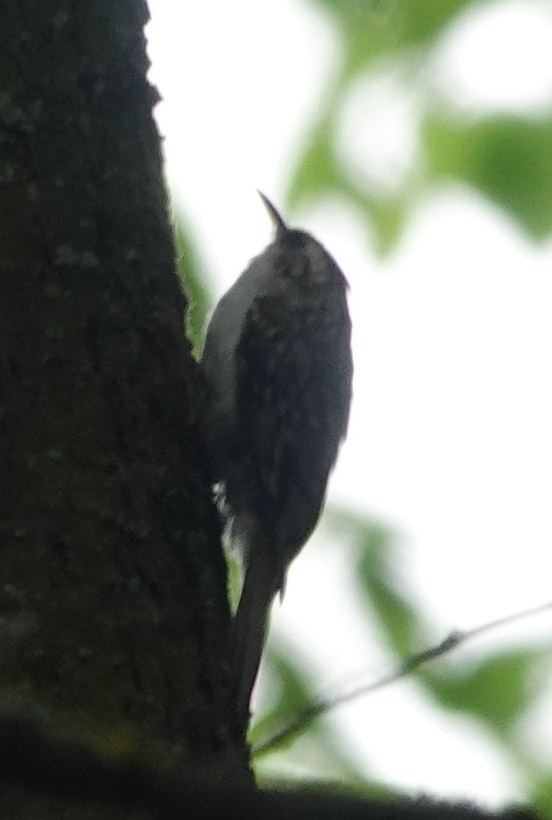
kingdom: Animalia
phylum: Chordata
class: Aves
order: Passeriformes
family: Certhiidae
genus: Certhia
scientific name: Certhia familiaris
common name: Eurasian treecreeper
